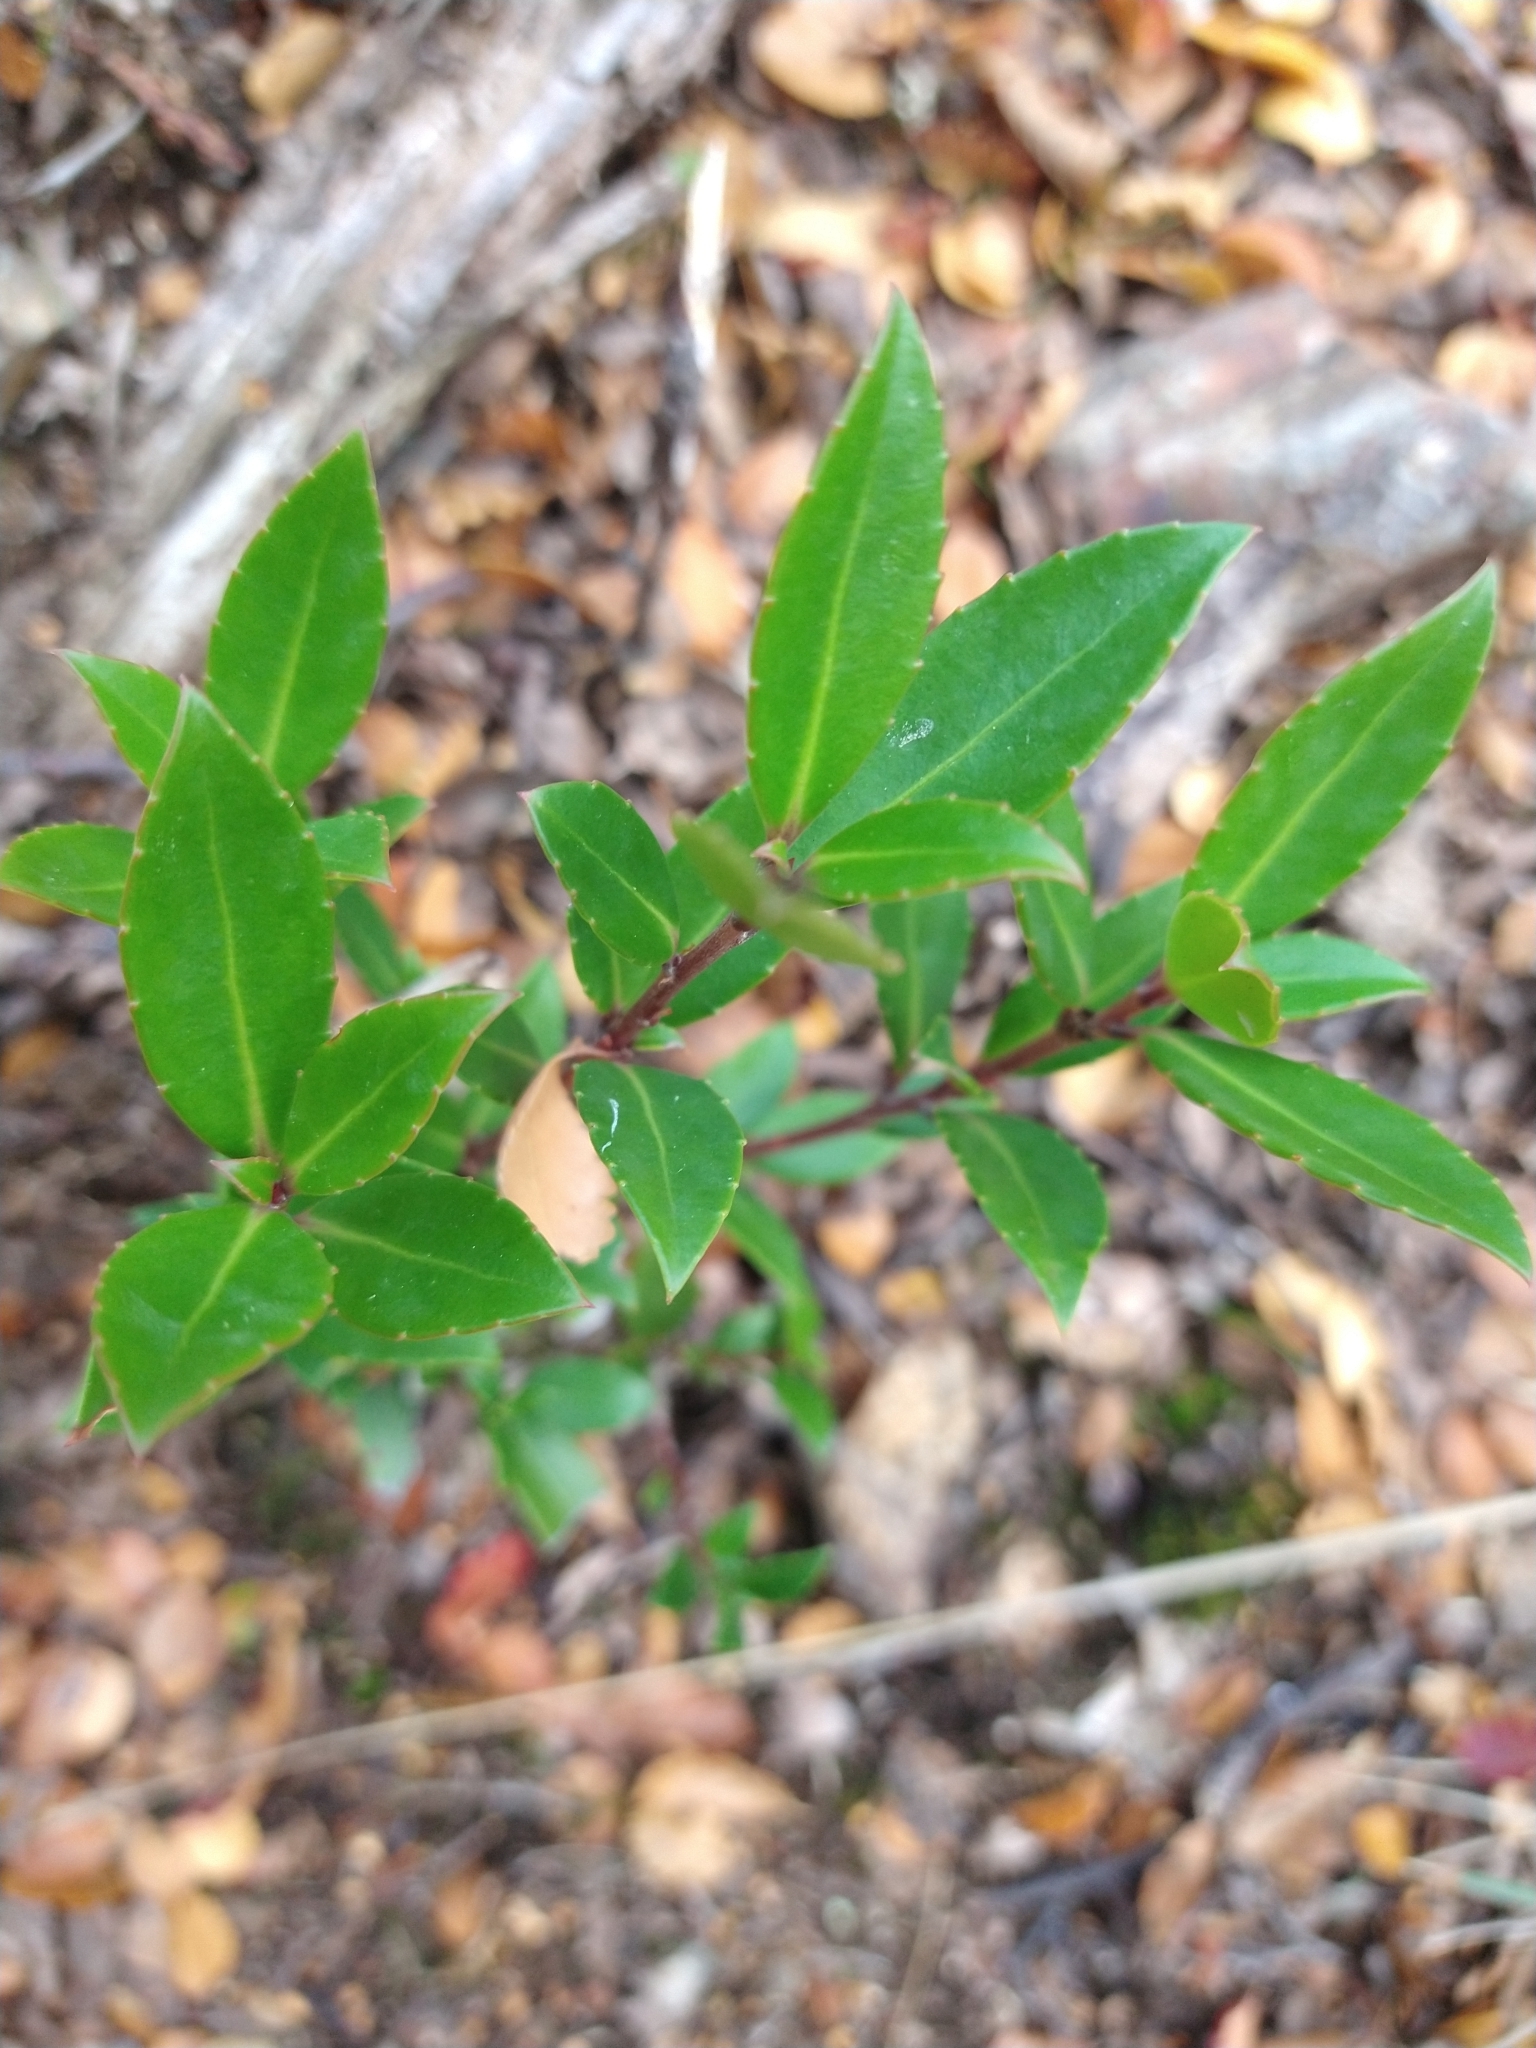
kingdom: Plantae
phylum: Tracheophyta
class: Magnoliopsida
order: Celastrales
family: Celastraceae
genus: Maytenus
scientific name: Maytenus magellanica
